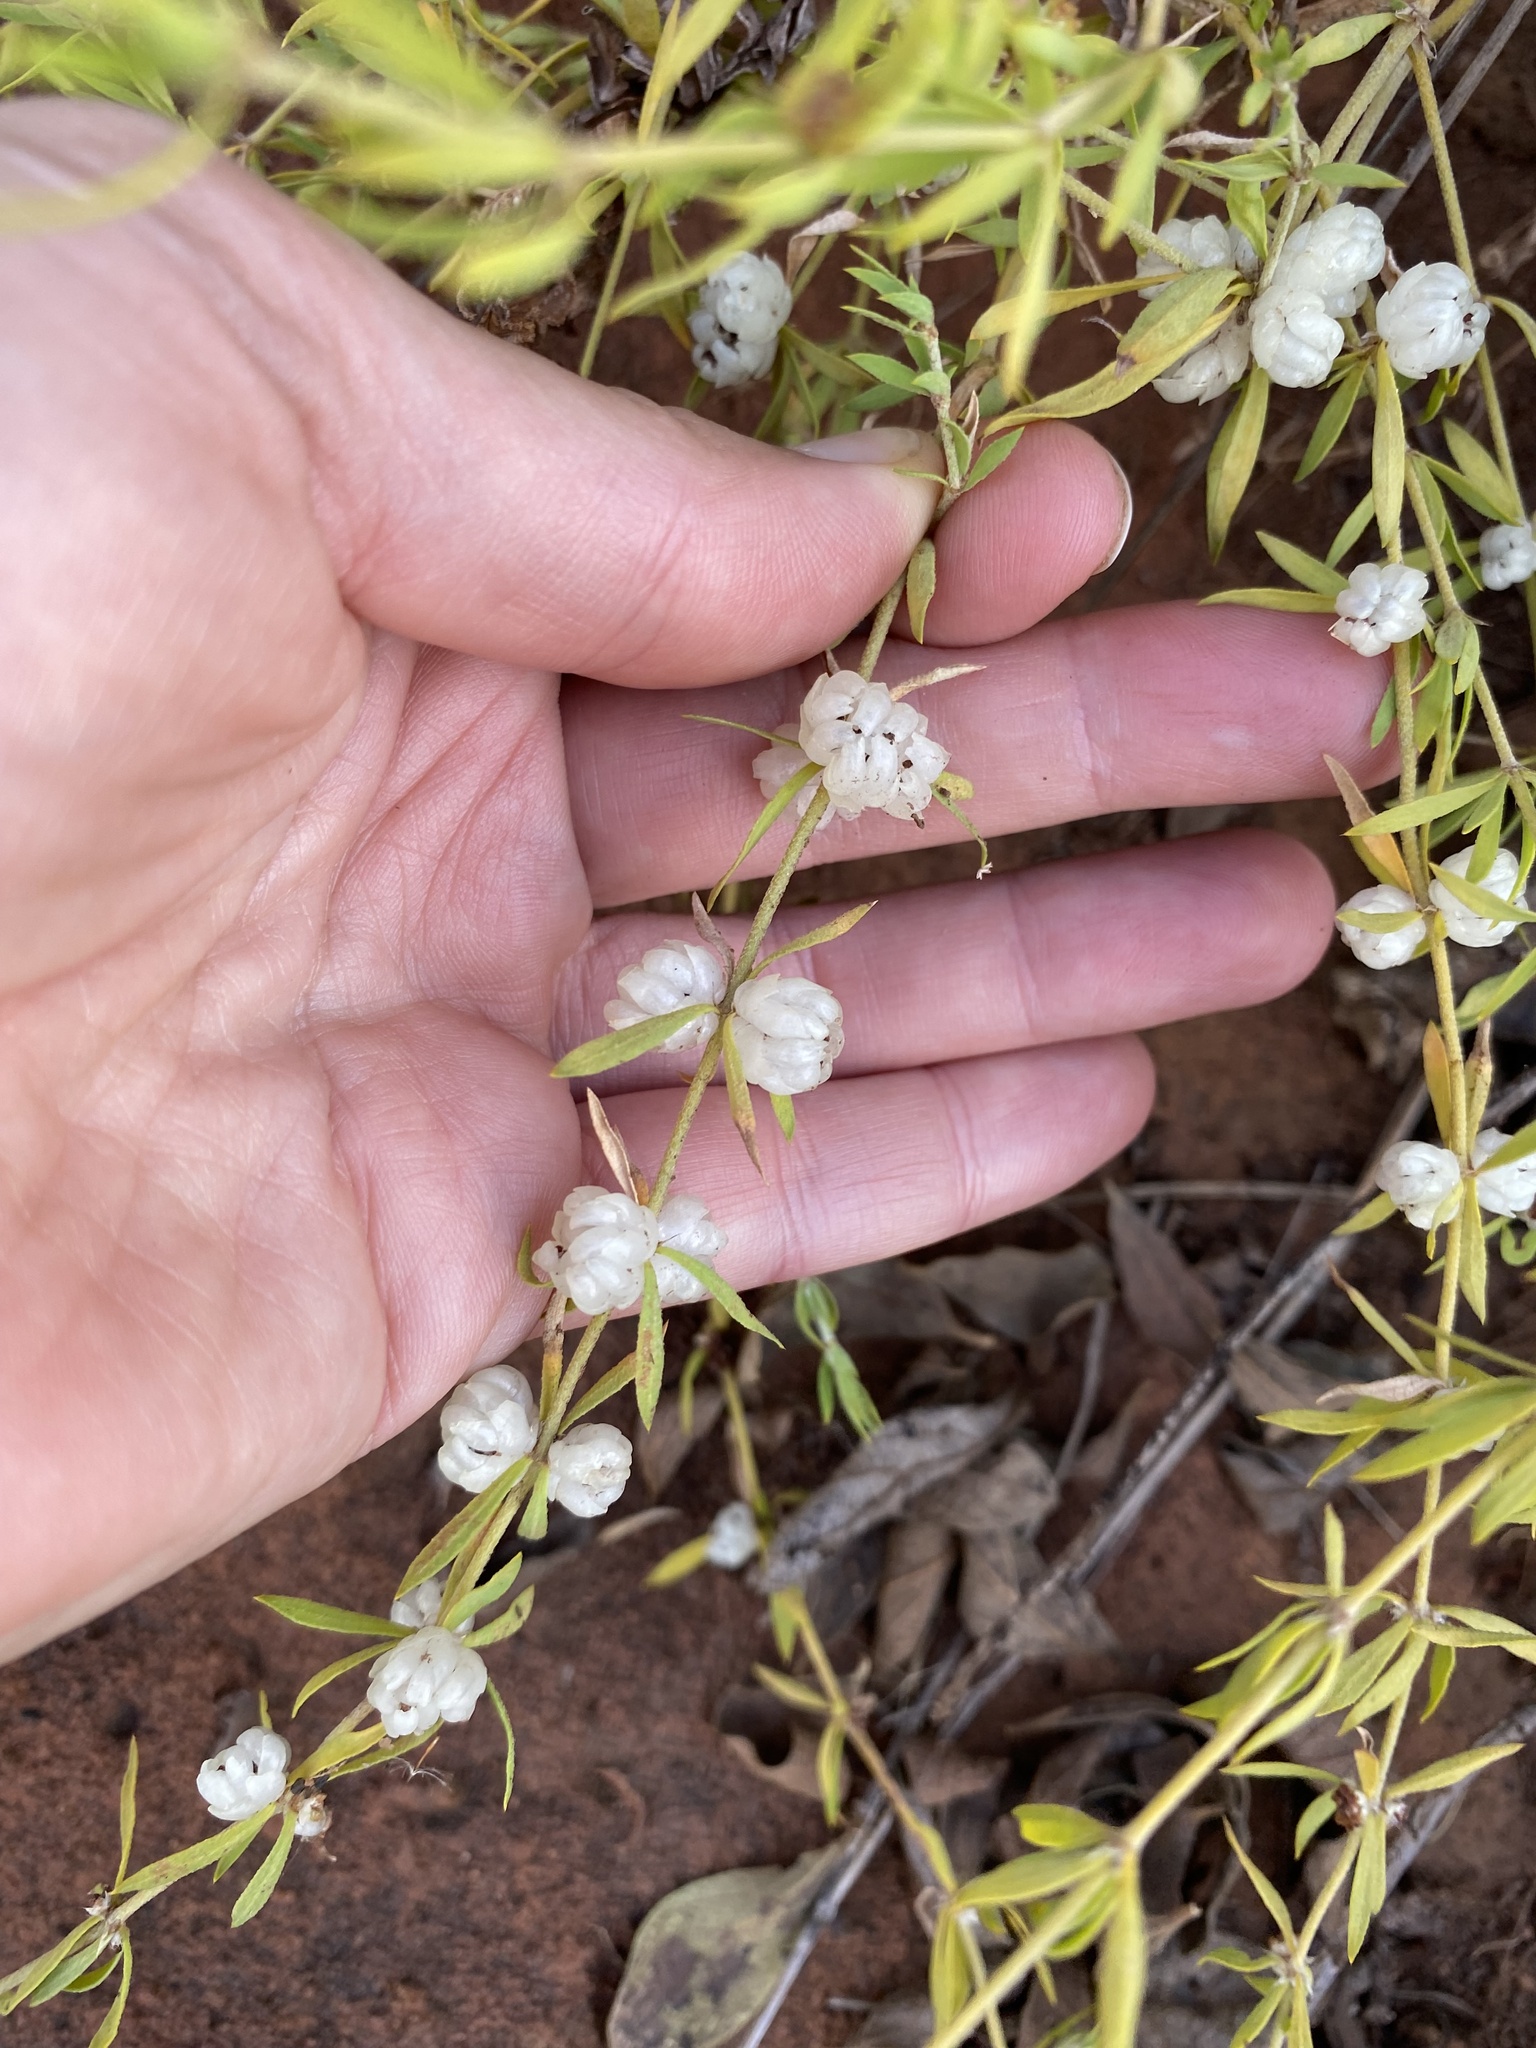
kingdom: Plantae
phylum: Tracheophyta
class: Magnoliopsida
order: Caryophyllales
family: Caryophyllaceae
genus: Pollichia
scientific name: Pollichia campestris
